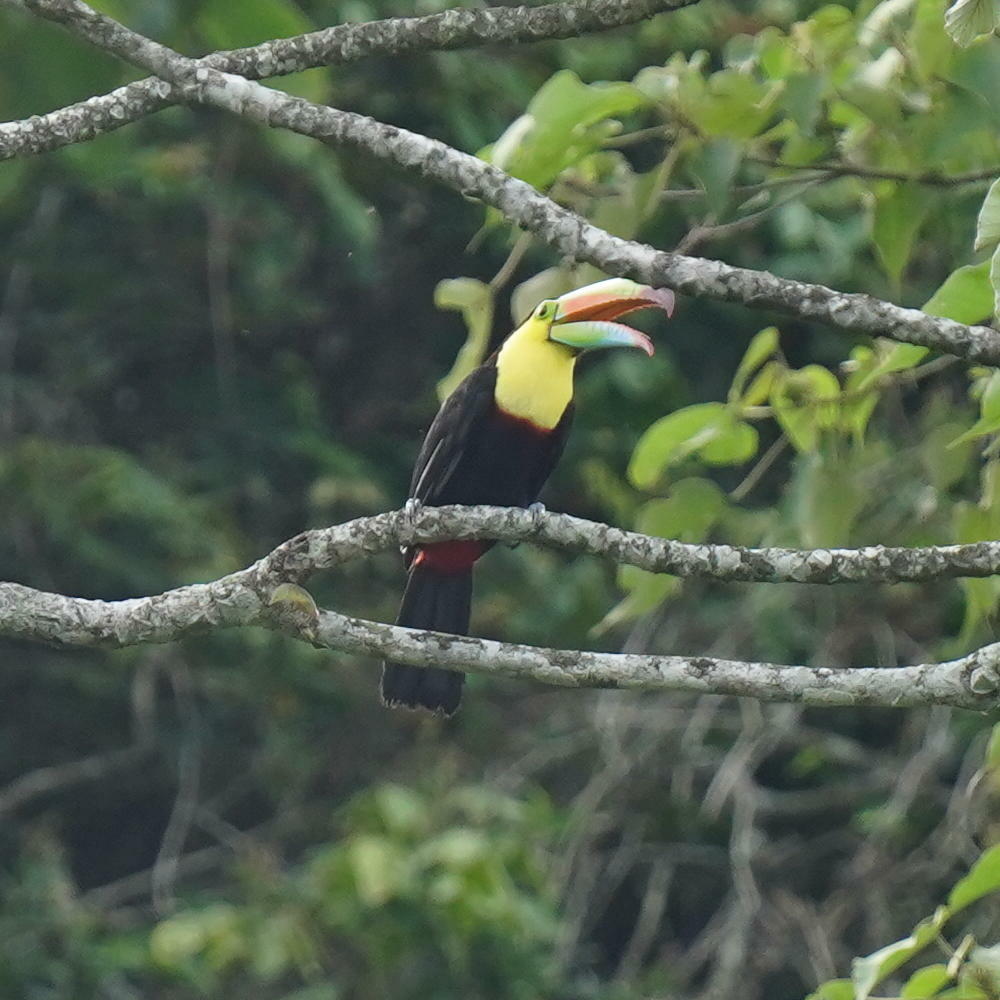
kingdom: Animalia
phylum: Chordata
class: Aves
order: Piciformes
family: Ramphastidae
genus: Ramphastos
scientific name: Ramphastos sulfuratus
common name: Keel-billed toucan
